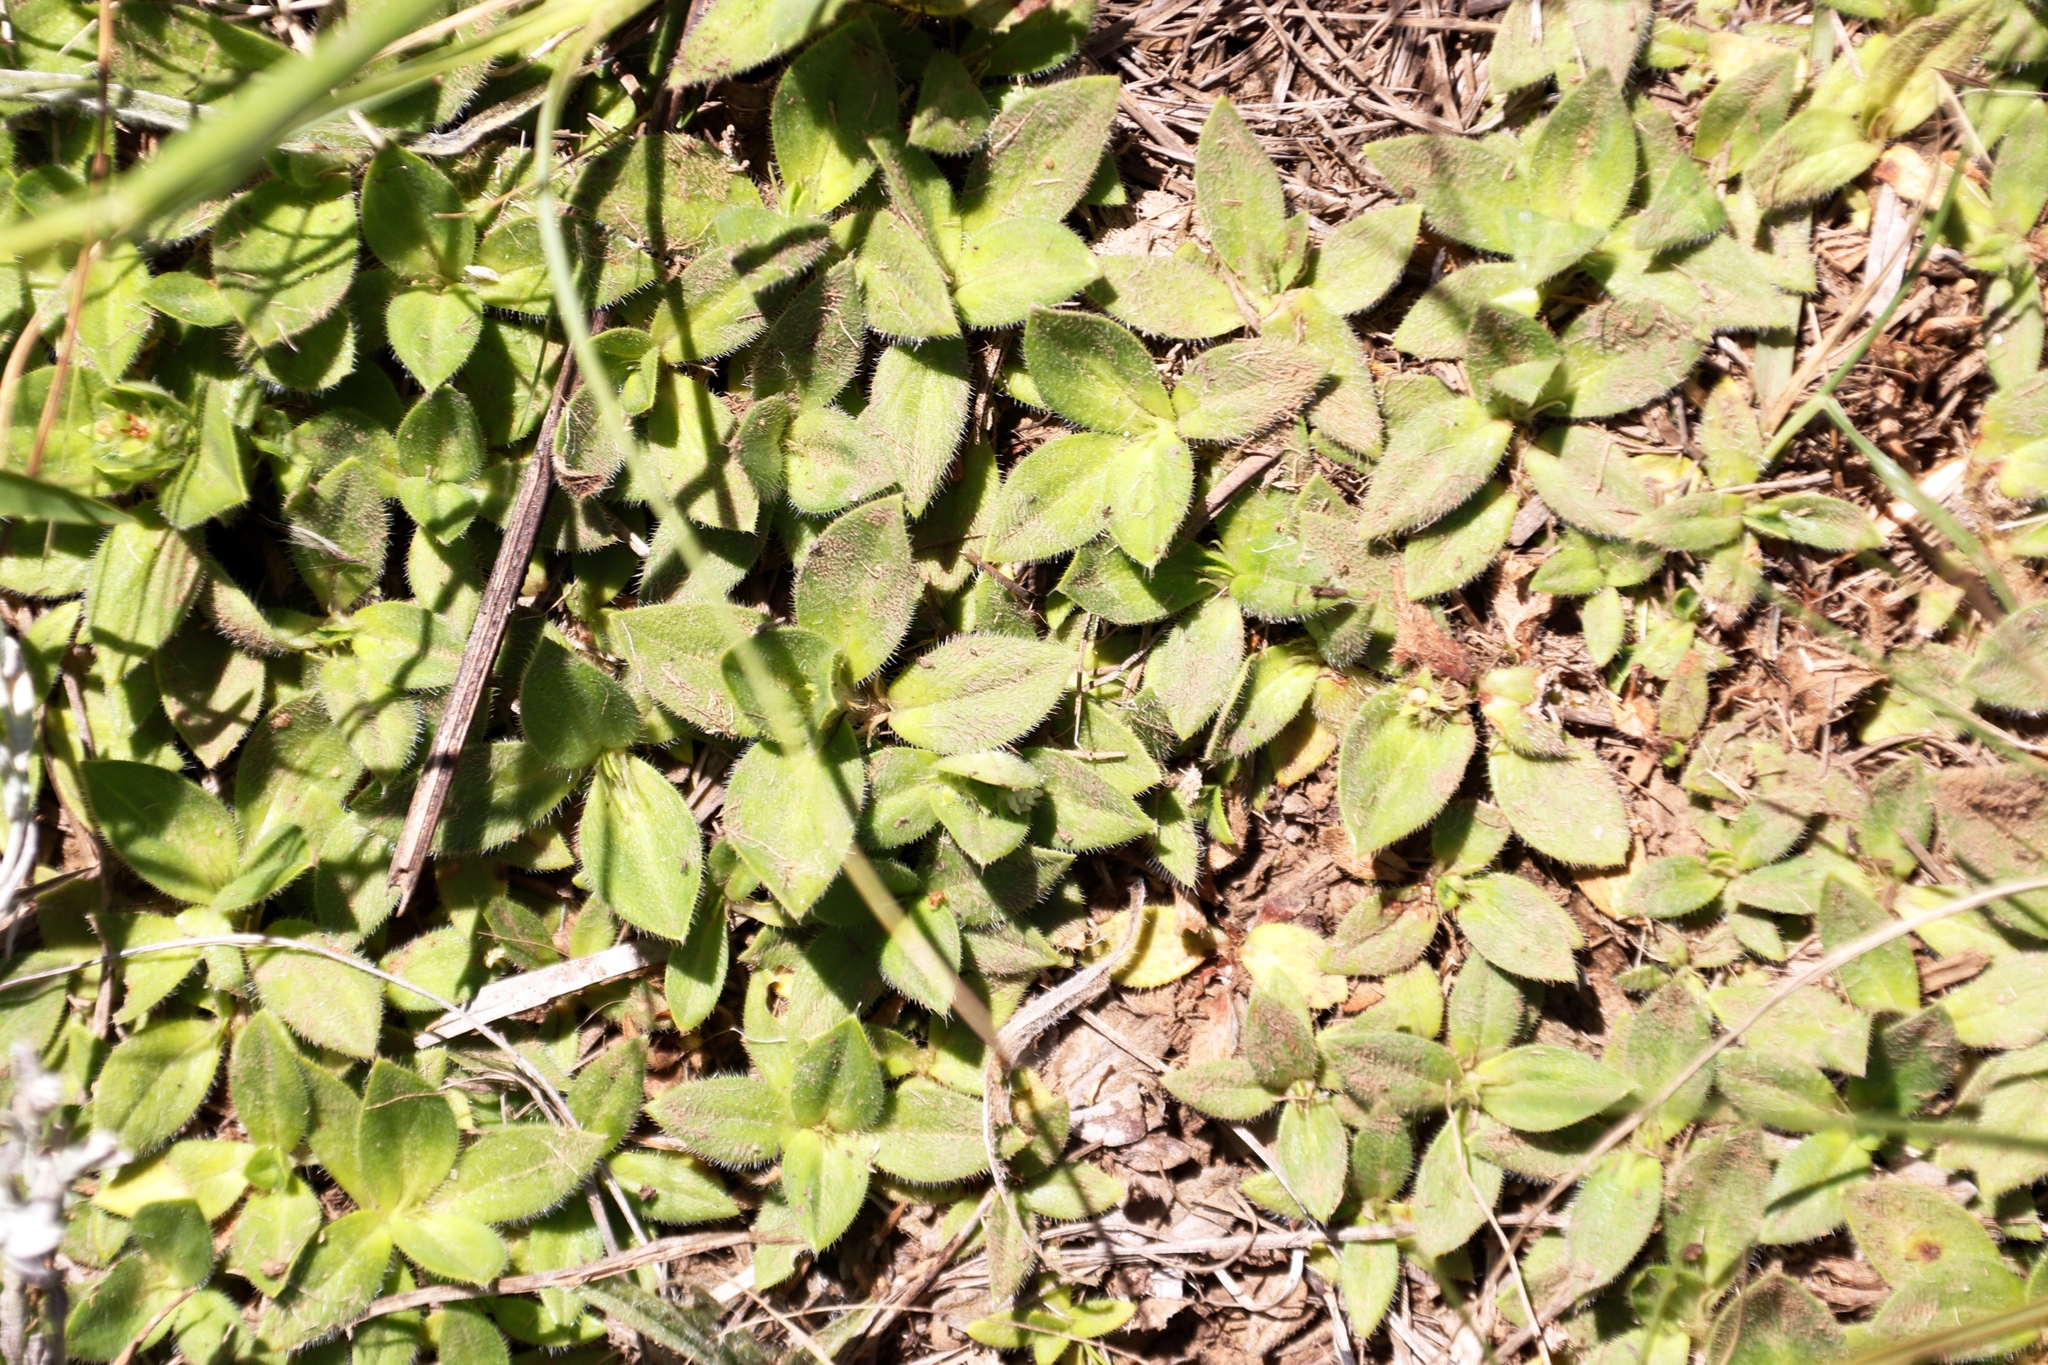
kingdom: Plantae
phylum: Tracheophyta
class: Magnoliopsida
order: Gentianales
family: Rubiaceae
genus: Richardia
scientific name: Richardia brasiliensis
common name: Tropical mexican clover
